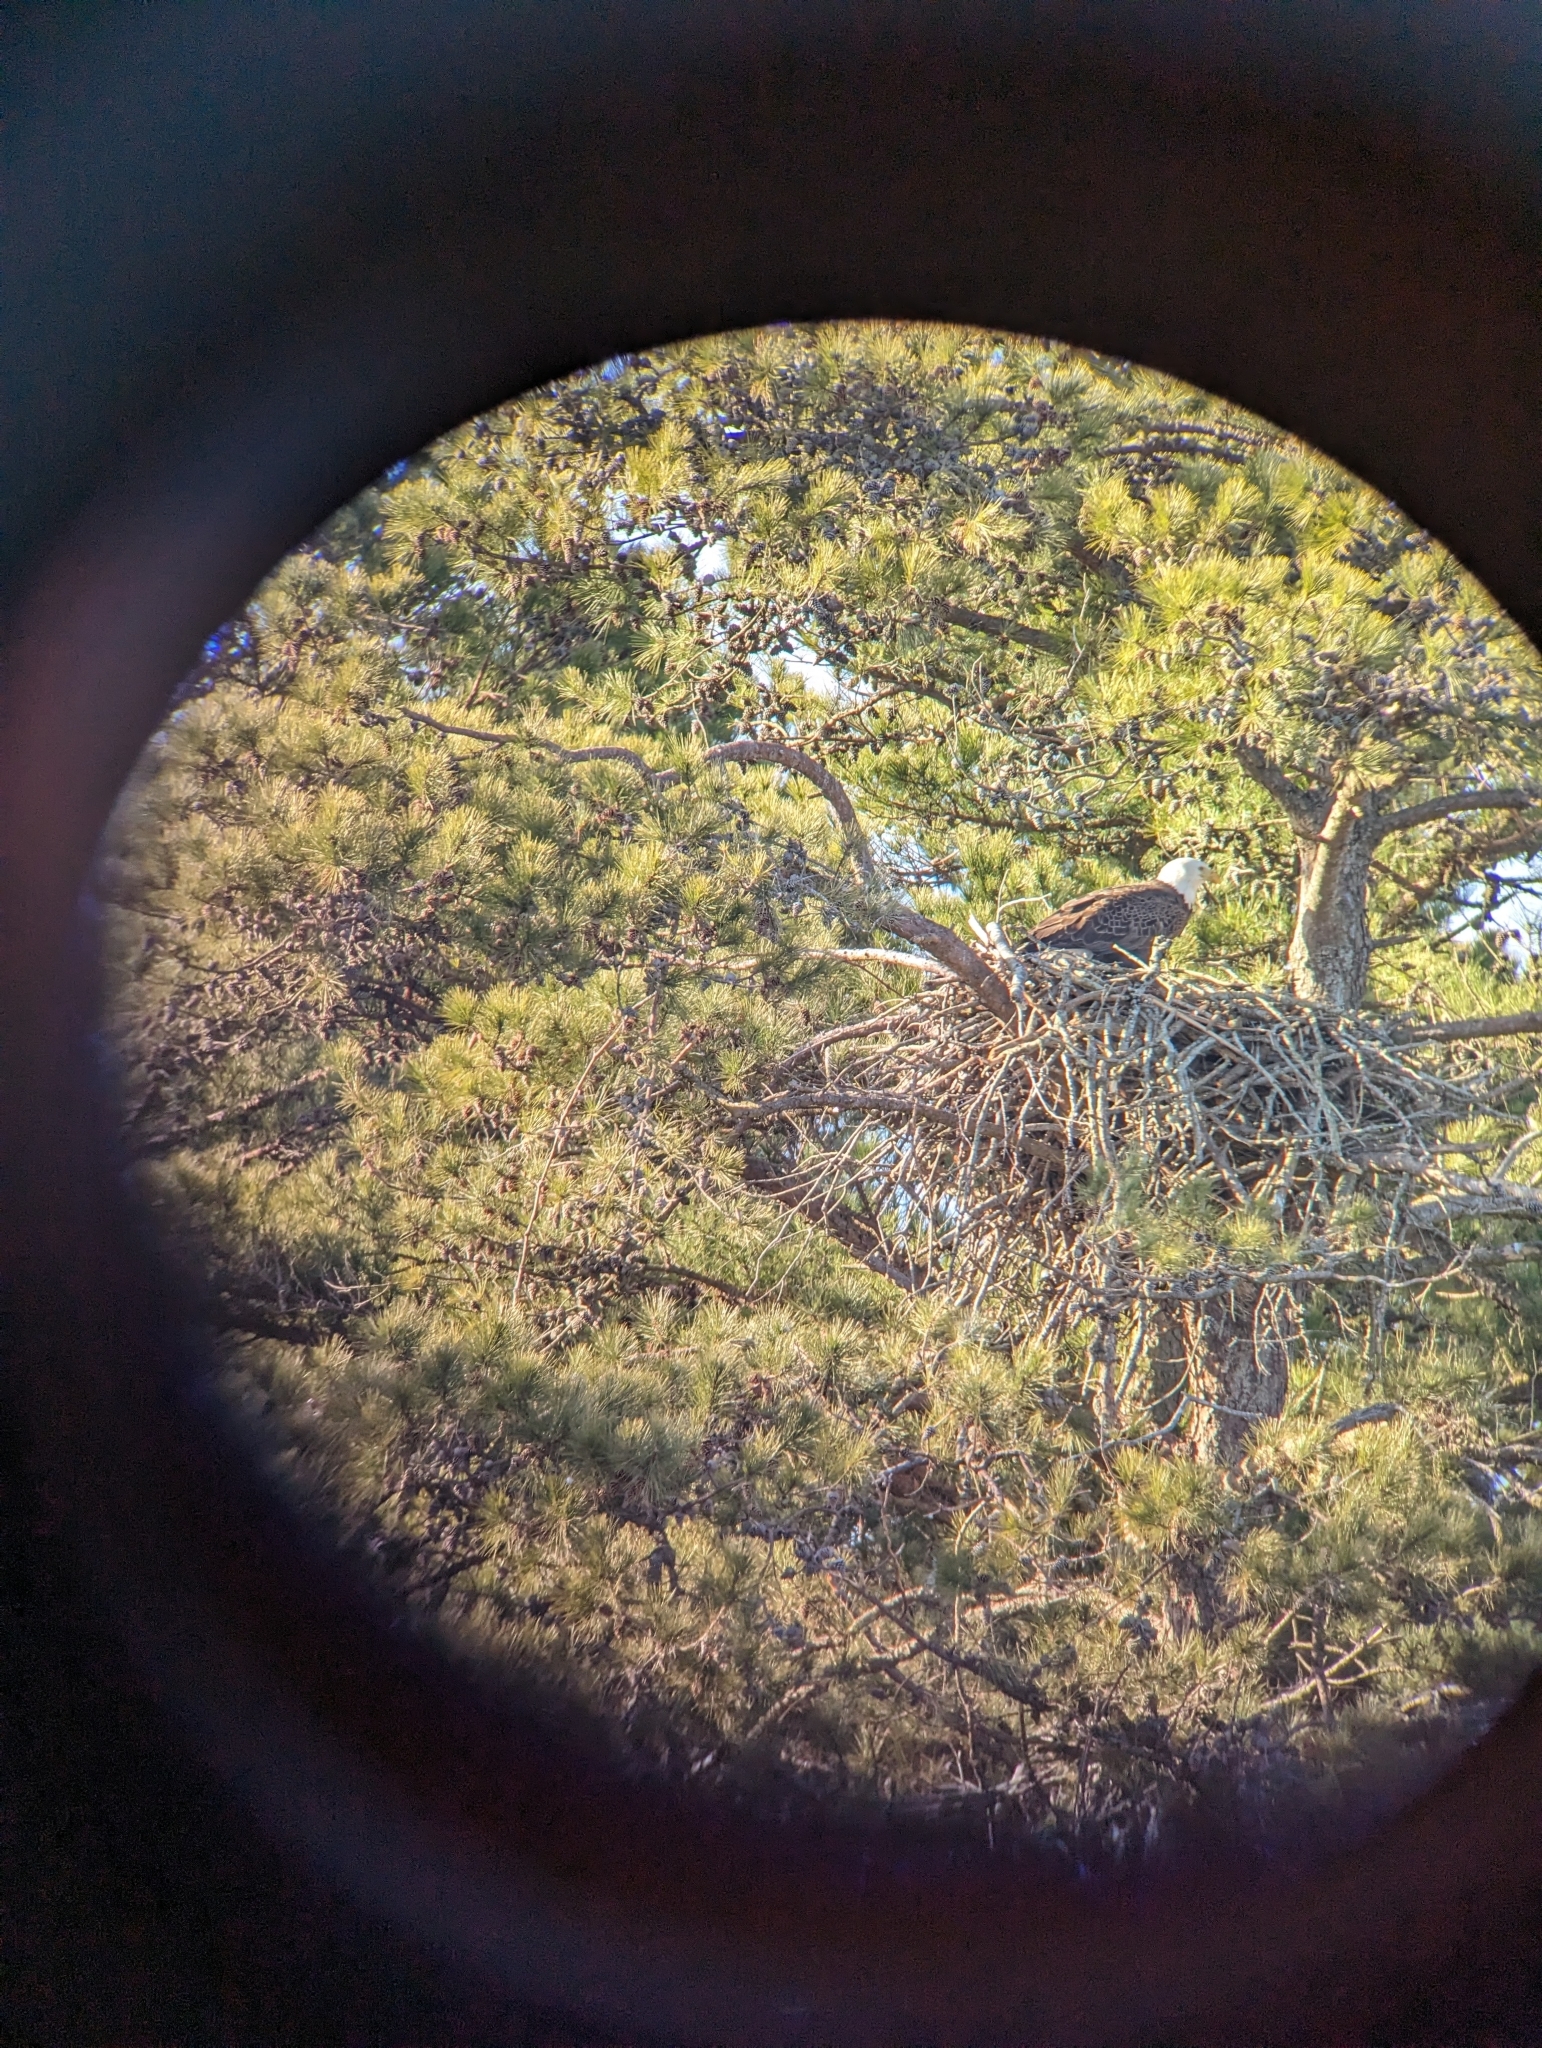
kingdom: Animalia
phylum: Chordata
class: Aves
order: Accipitriformes
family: Accipitridae
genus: Haliaeetus
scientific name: Haliaeetus leucocephalus
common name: Bald eagle
